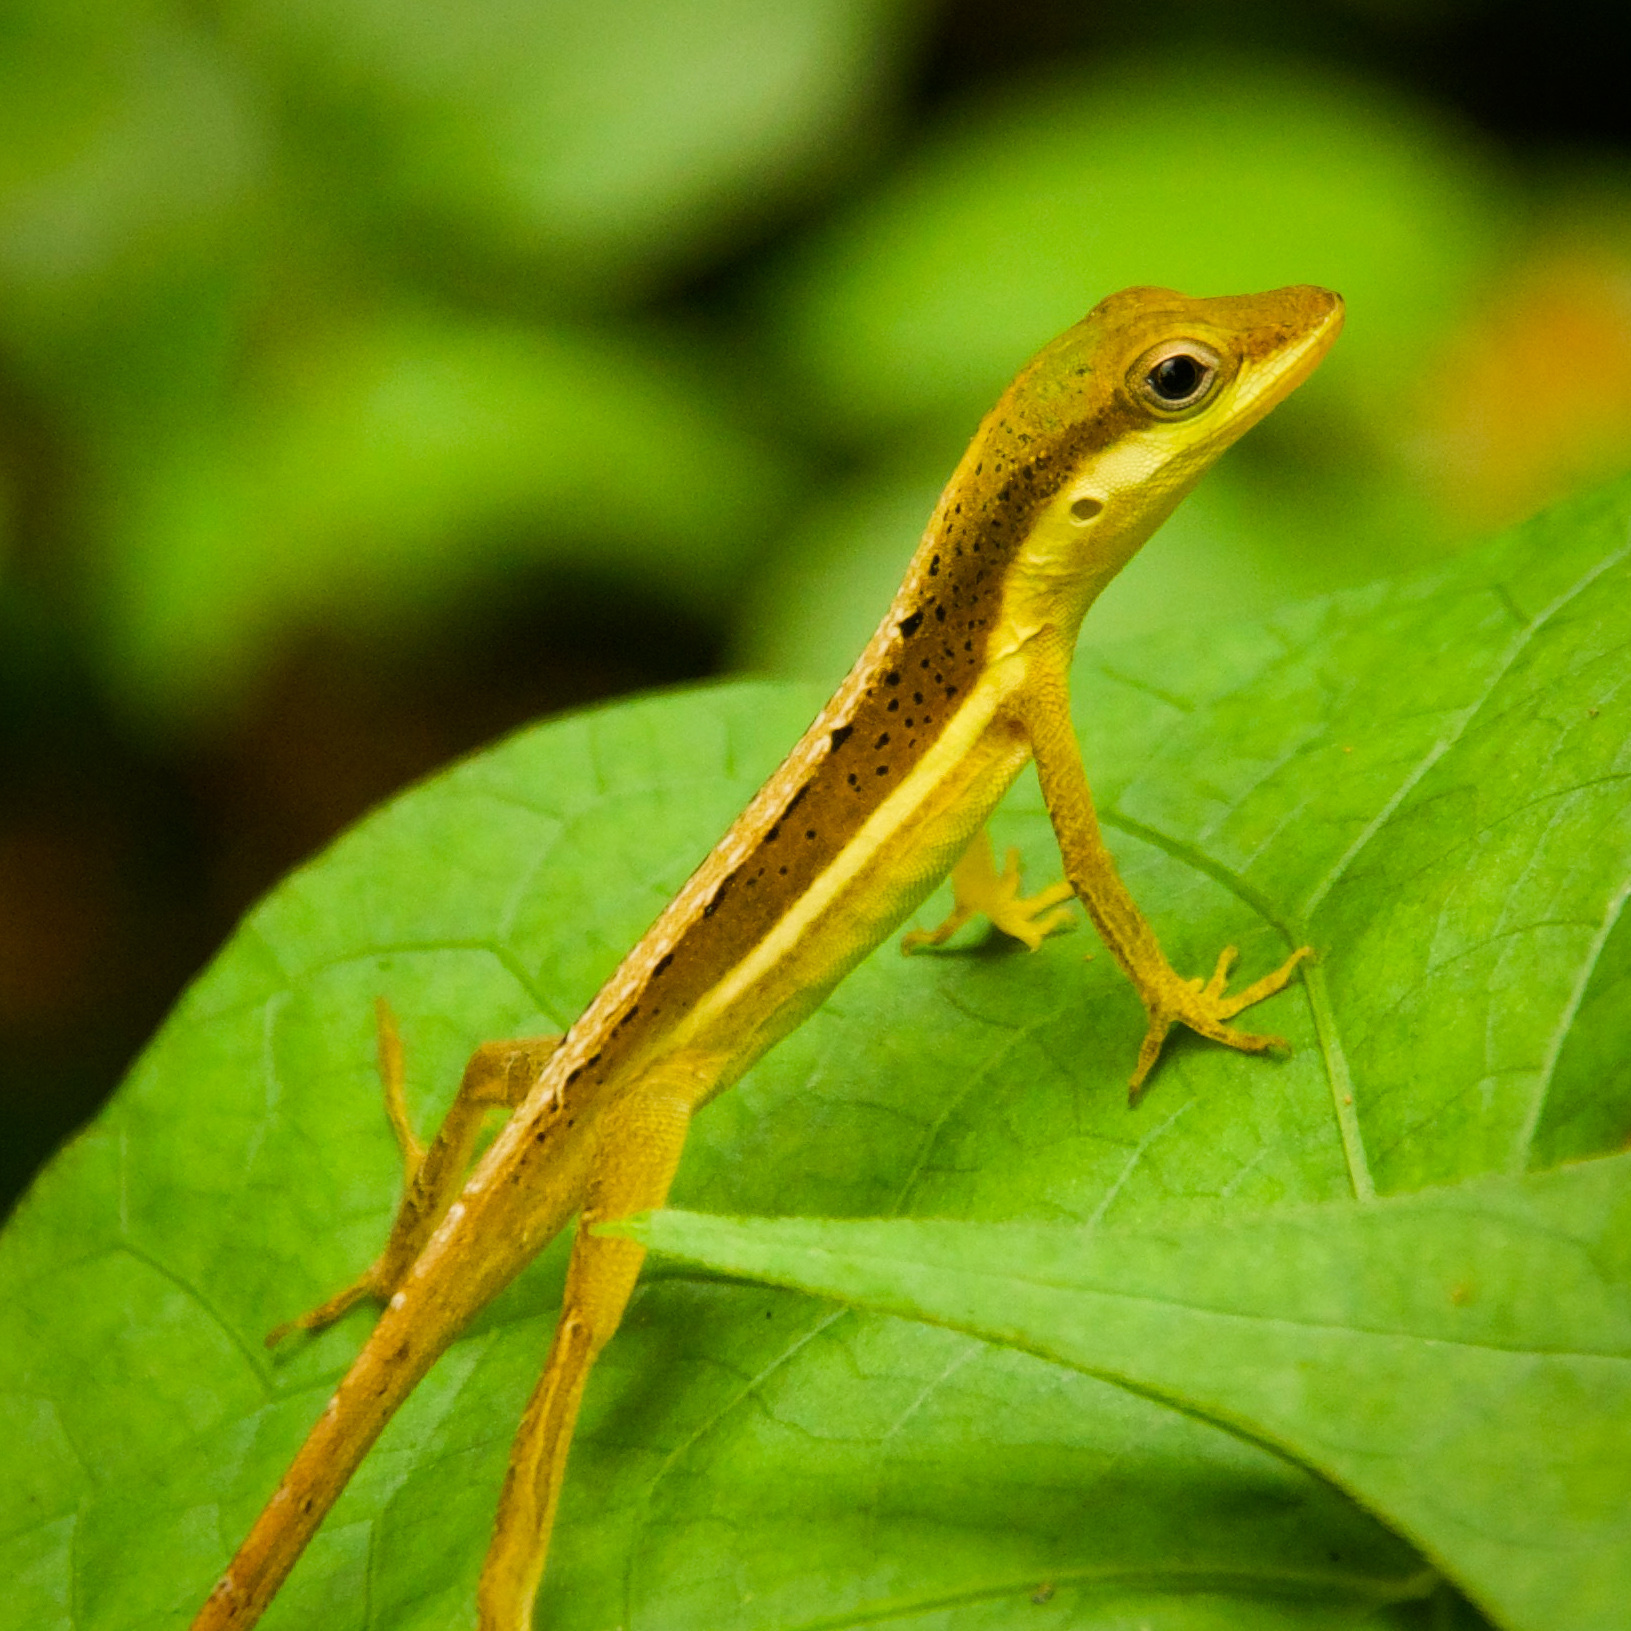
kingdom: Animalia
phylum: Chordata
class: Squamata
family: Dactyloidae
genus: Anolis
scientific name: Anolis krugi
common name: Krug's anole
